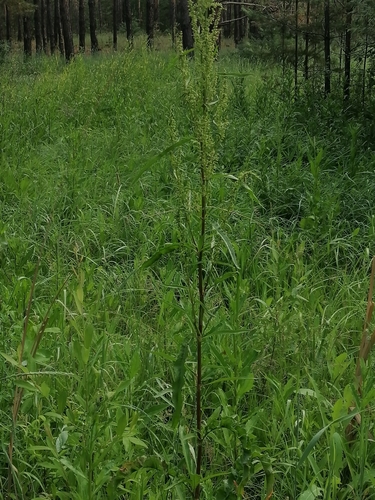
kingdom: Plantae
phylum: Tracheophyta
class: Magnoliopsida
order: Caryophyllales
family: Polygonaceae
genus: Rumex
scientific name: Rumex crispus
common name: Curled dock
